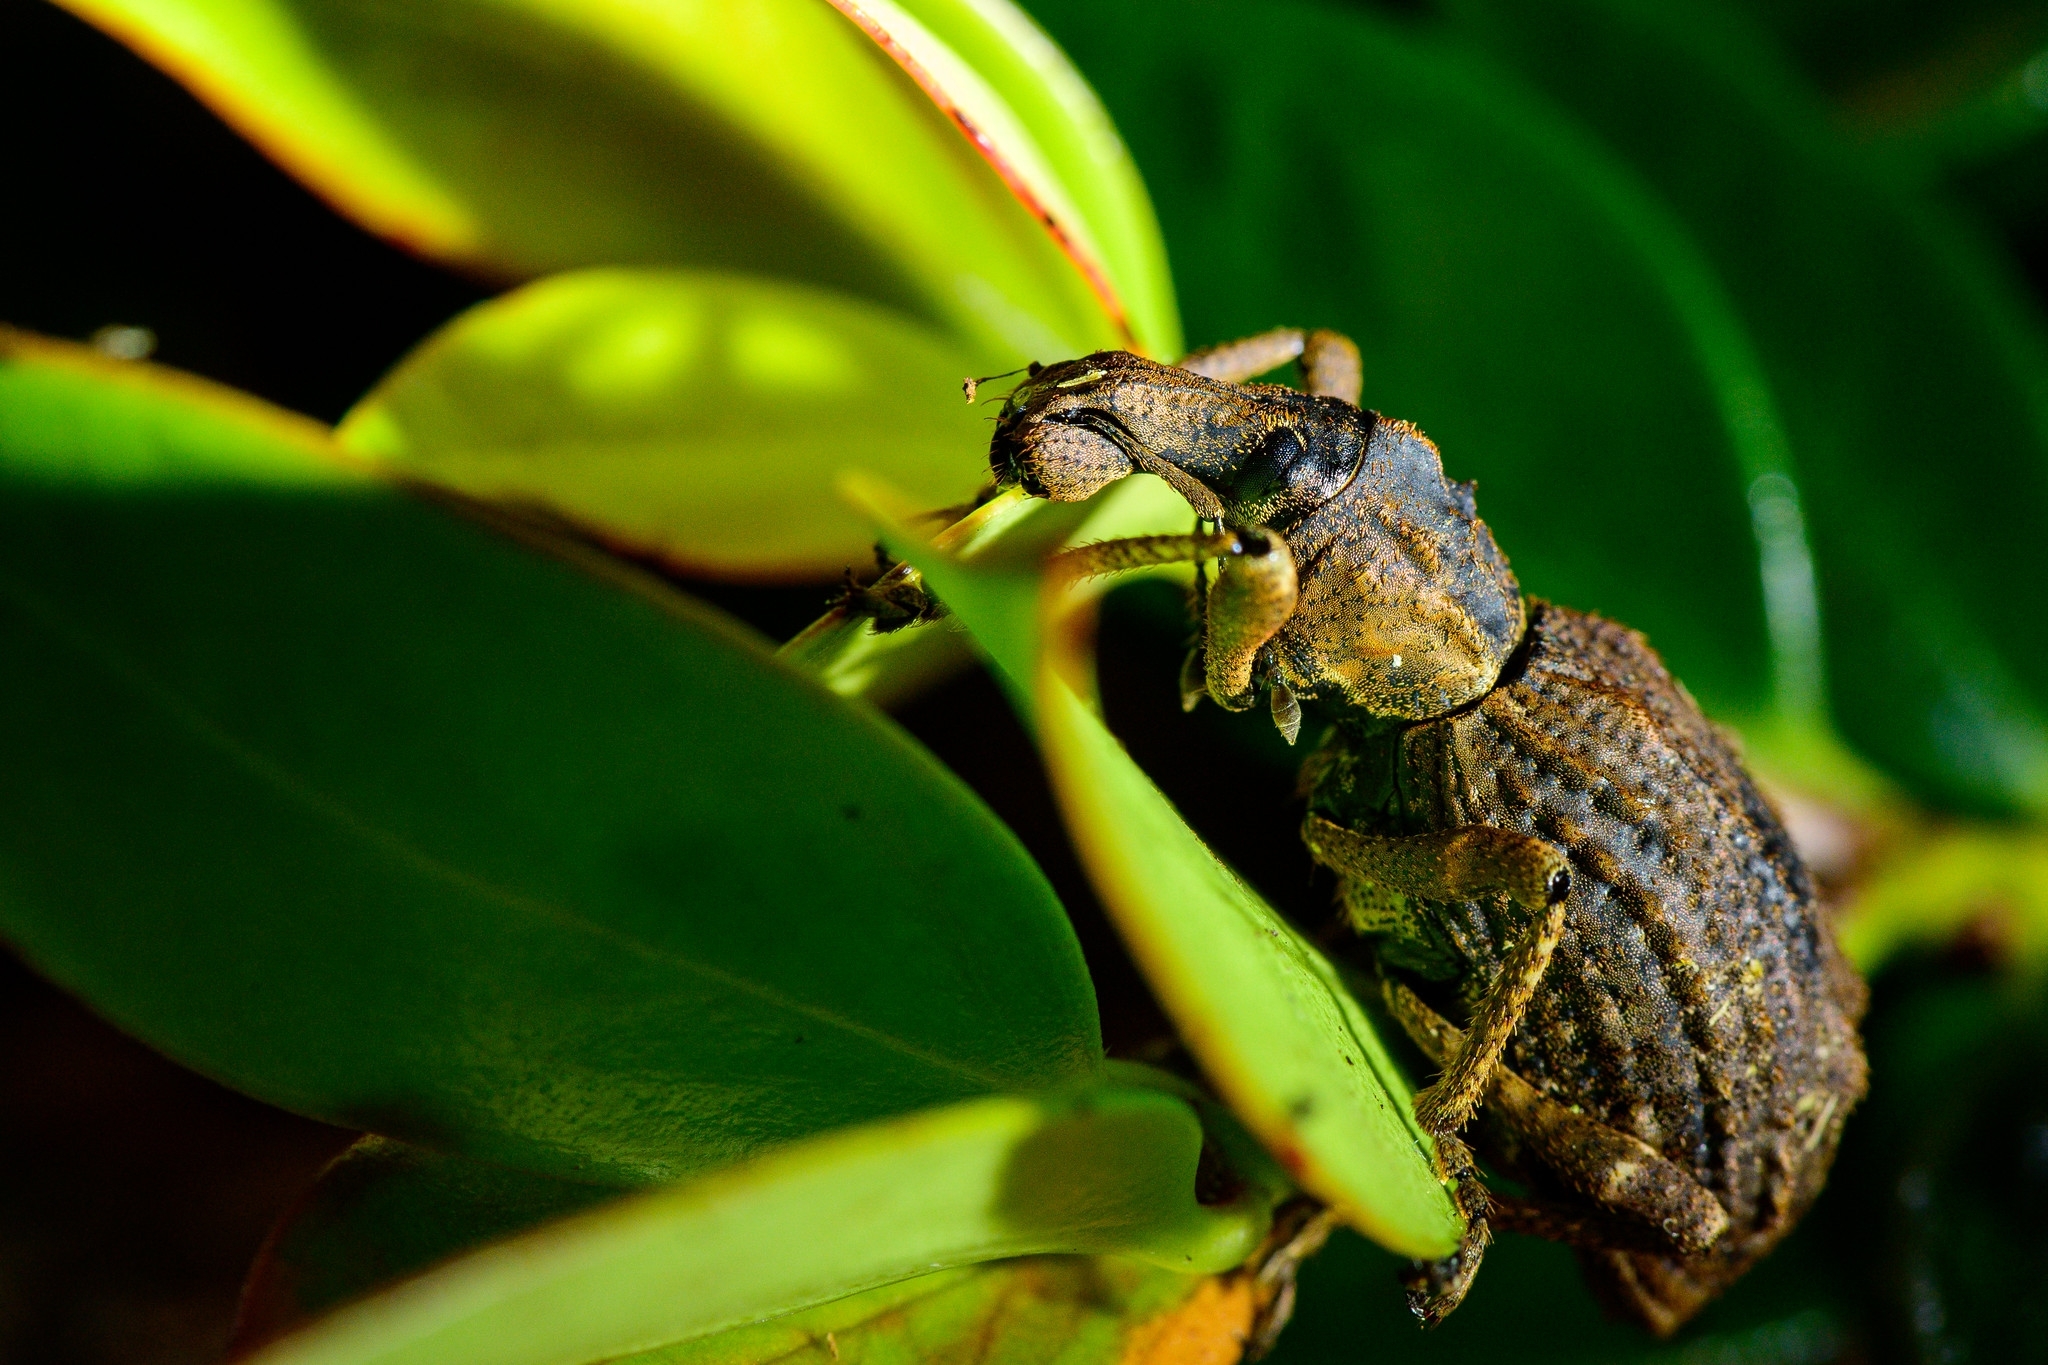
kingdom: Animalia
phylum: Arthropoda
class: Insecta
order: Coleoptera
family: Curculionidae
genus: Anagotus
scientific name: Anagotus fairburni
